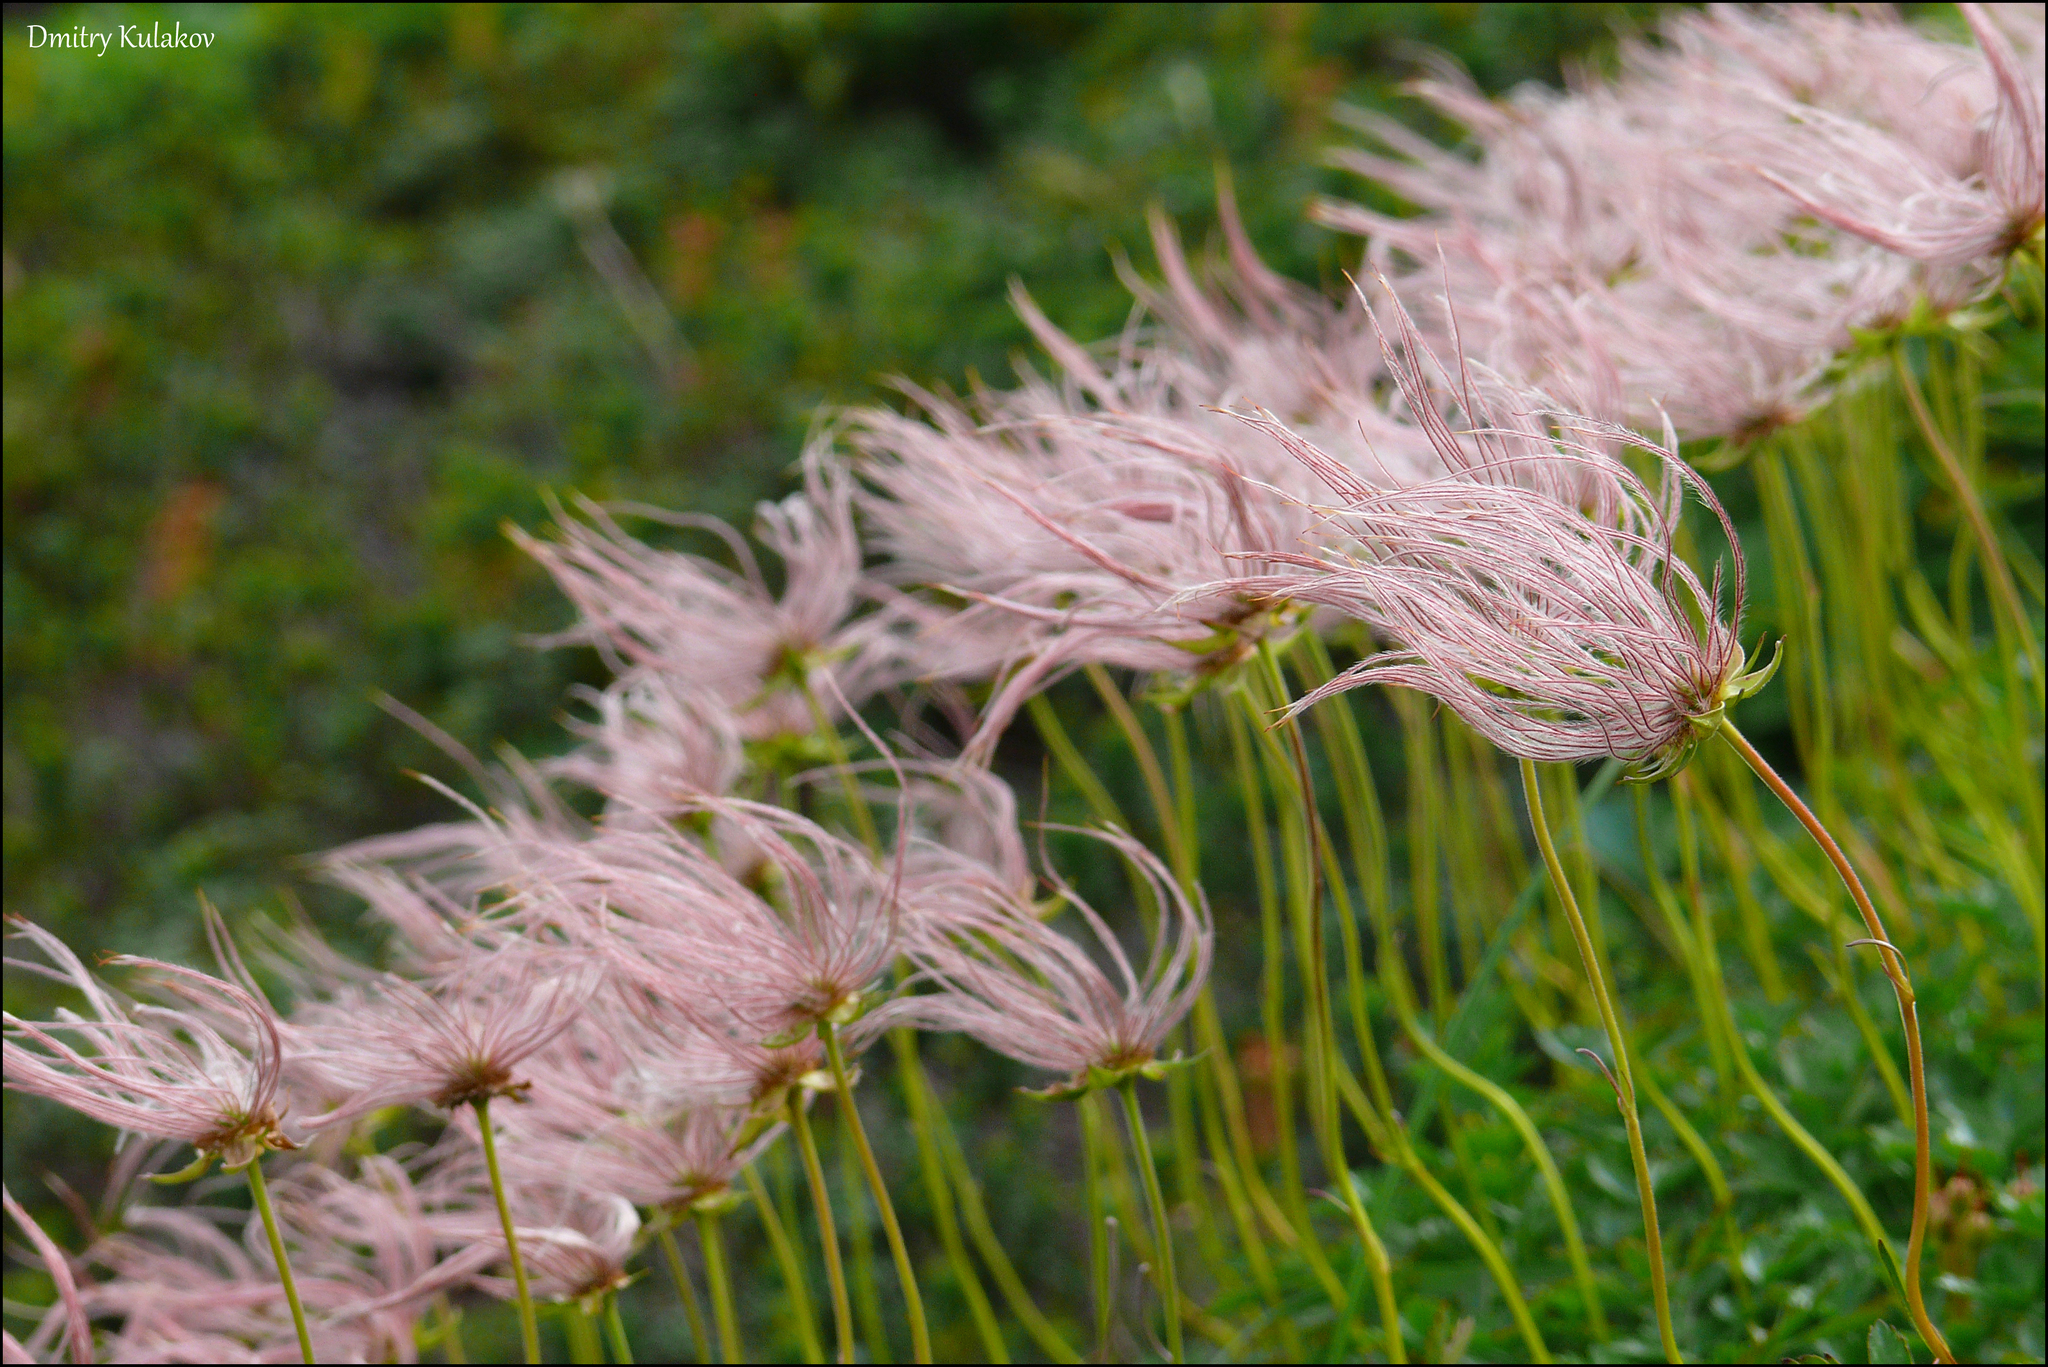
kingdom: Plantae
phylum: Tracheophyta
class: Magnoliopsida
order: Rosales
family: Rosaceae
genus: Geum
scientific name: Geum pentapetalum
